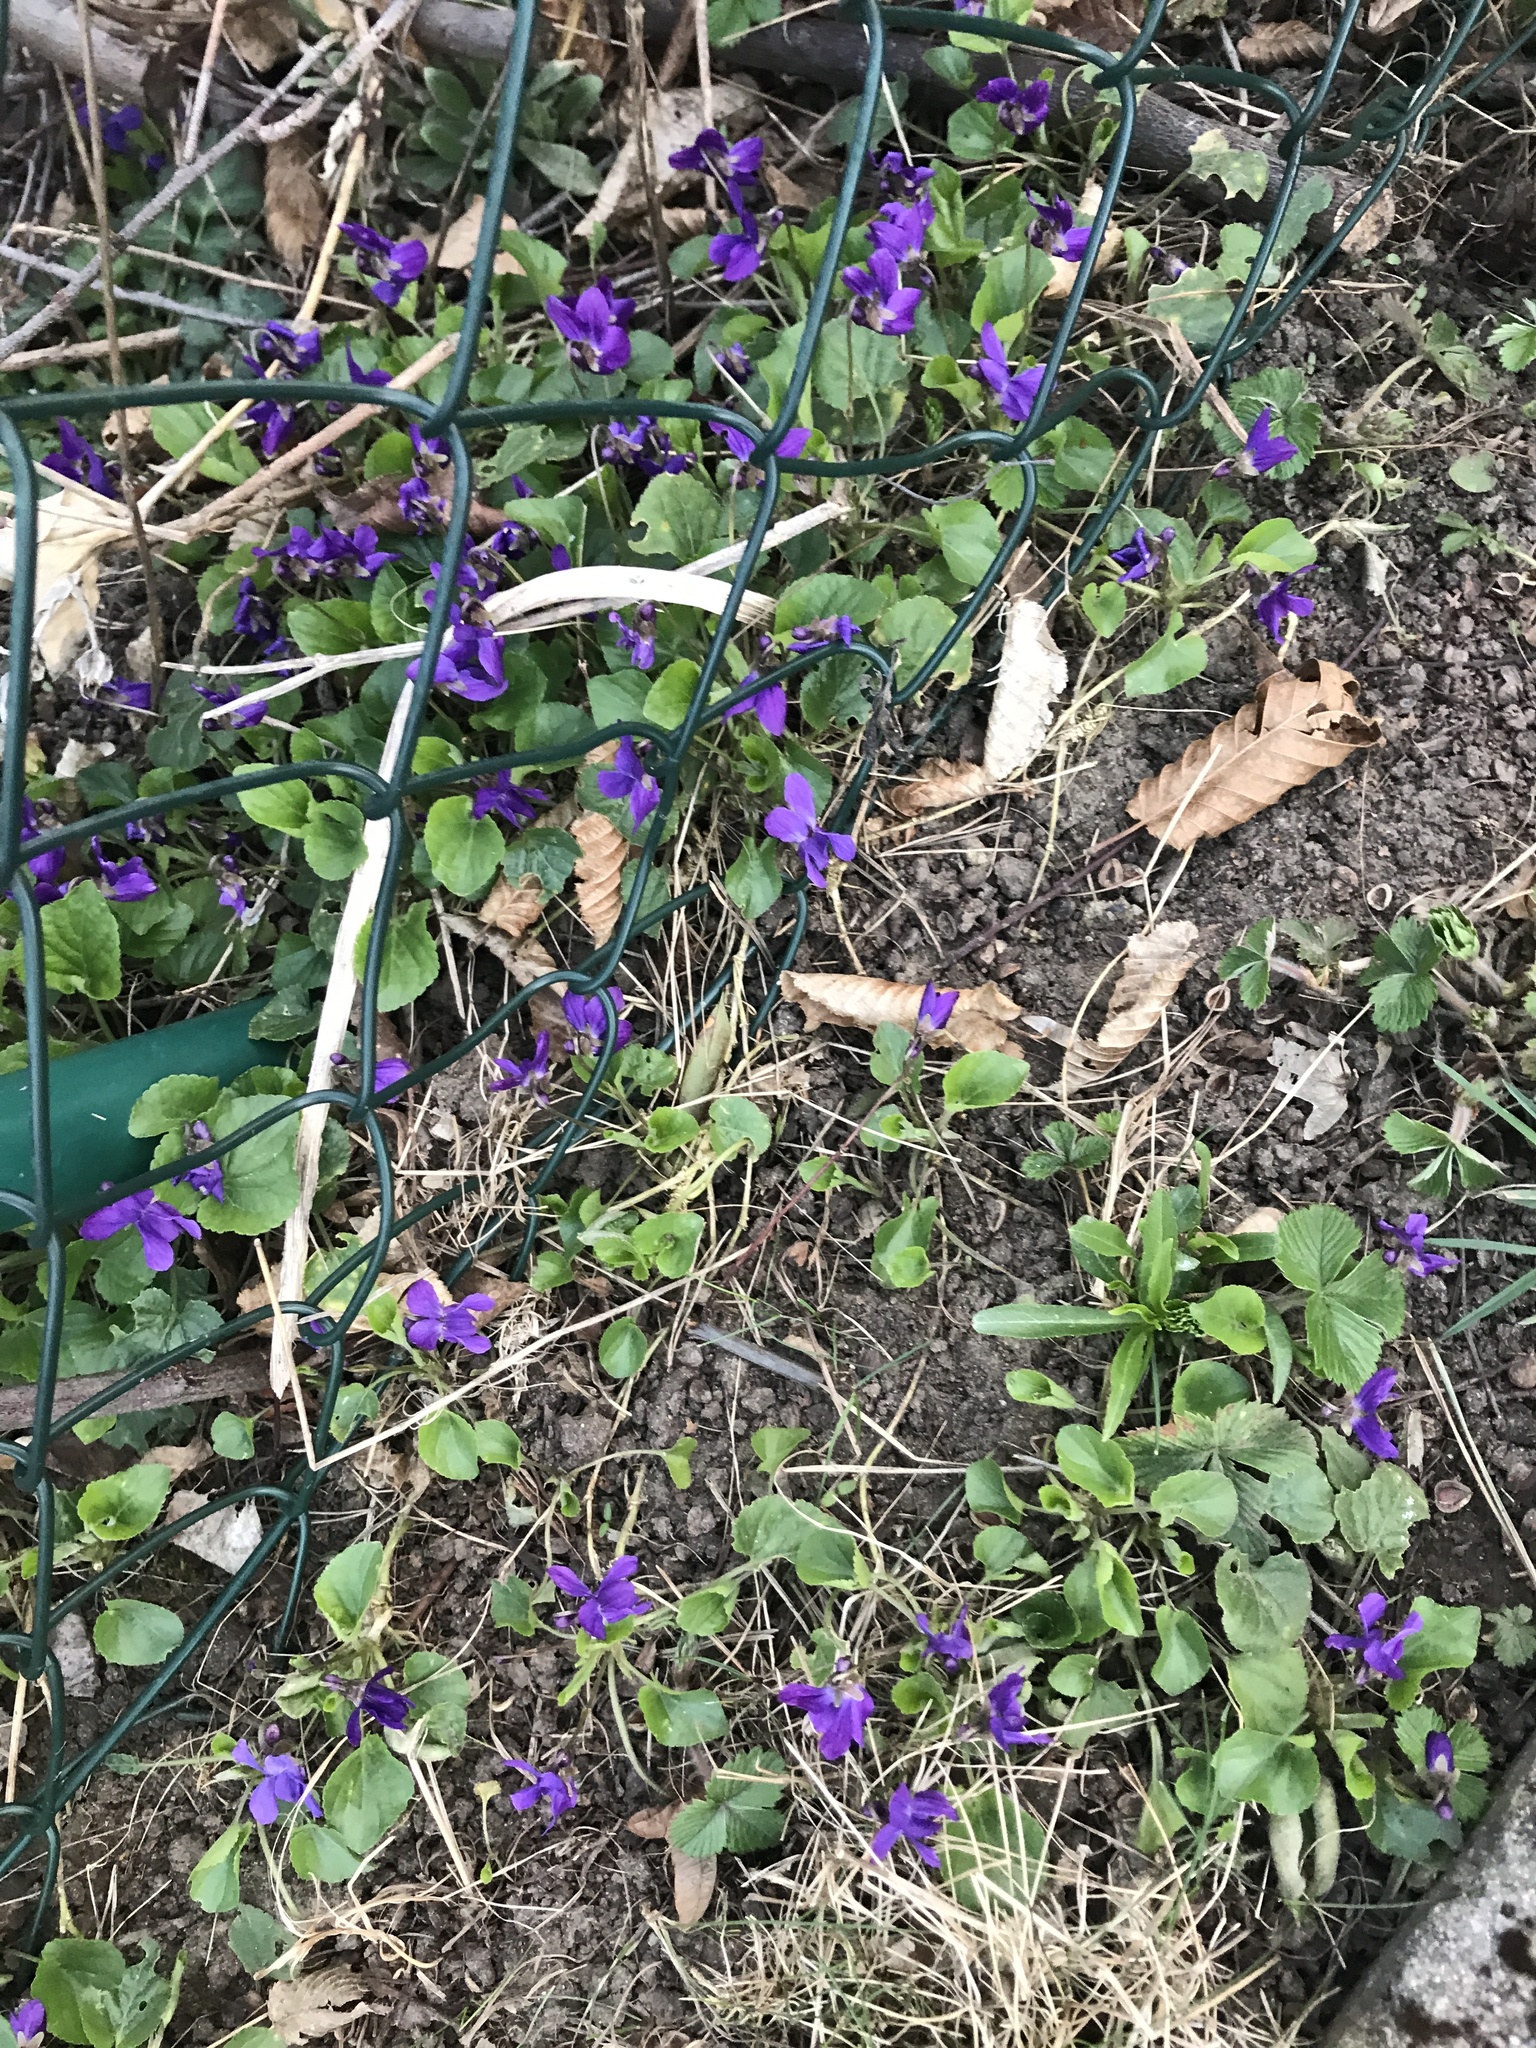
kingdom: Plantae
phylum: Tracheophyta
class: Magnoliopsida
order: Malpighiales
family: Violaceae
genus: Viola
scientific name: Viola odorata
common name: Sweet violet
